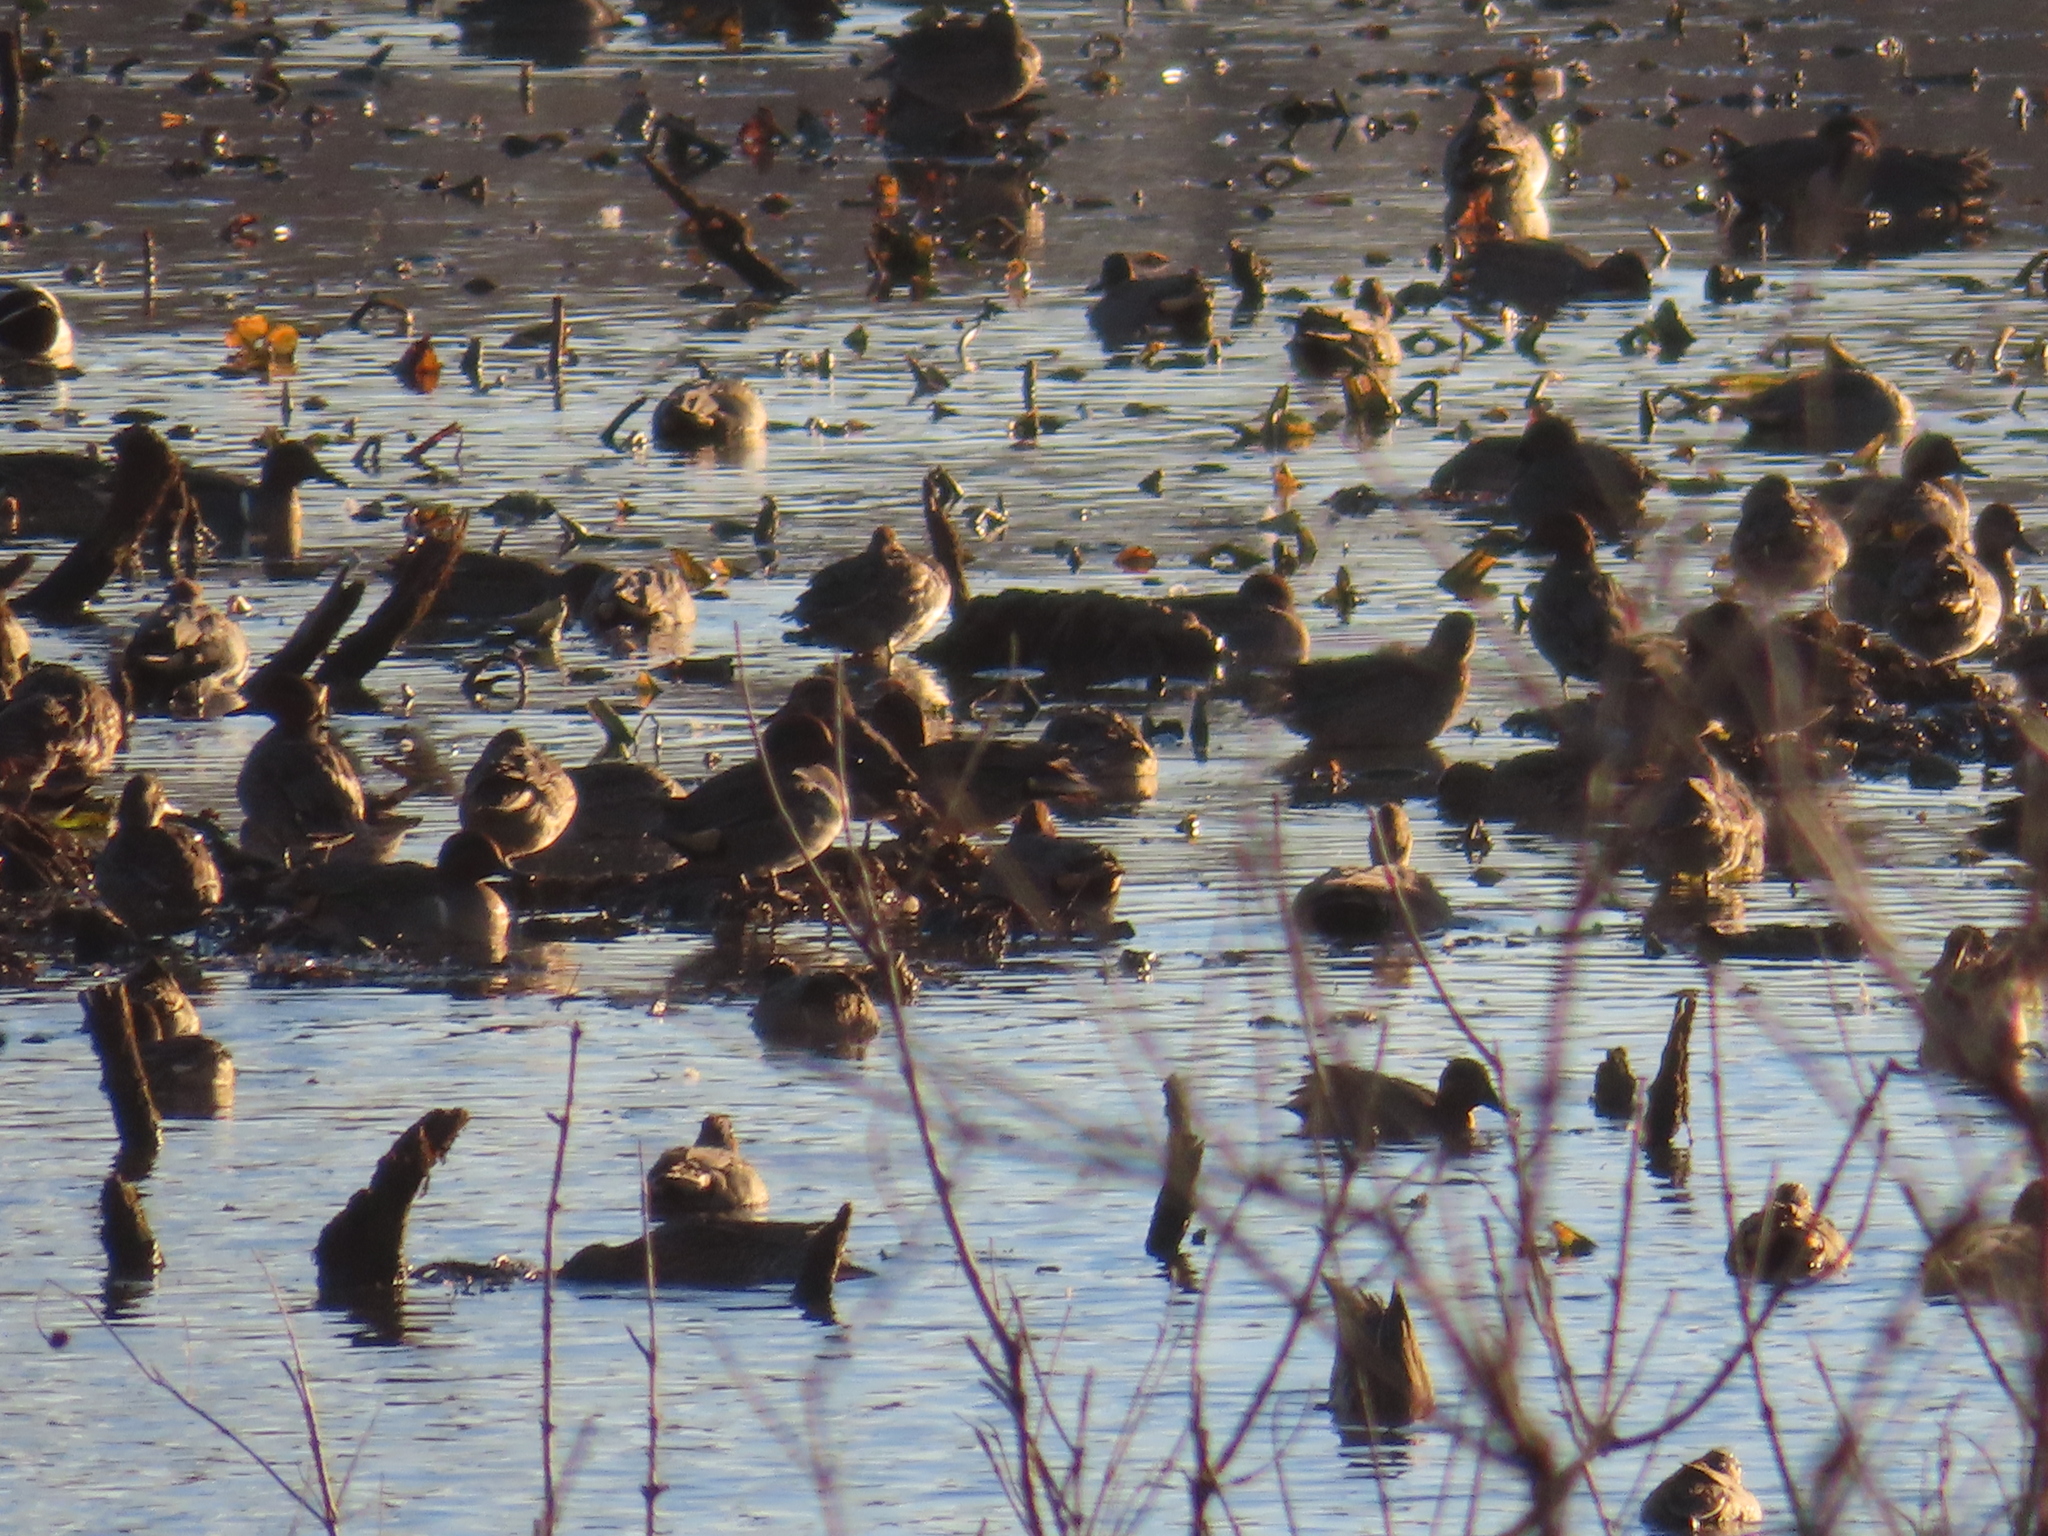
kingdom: Animalia
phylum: Chordata
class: Aves
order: Anseriformes
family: Anatidae
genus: Anas
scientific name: Anas carolinensis
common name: Green-winged teal
